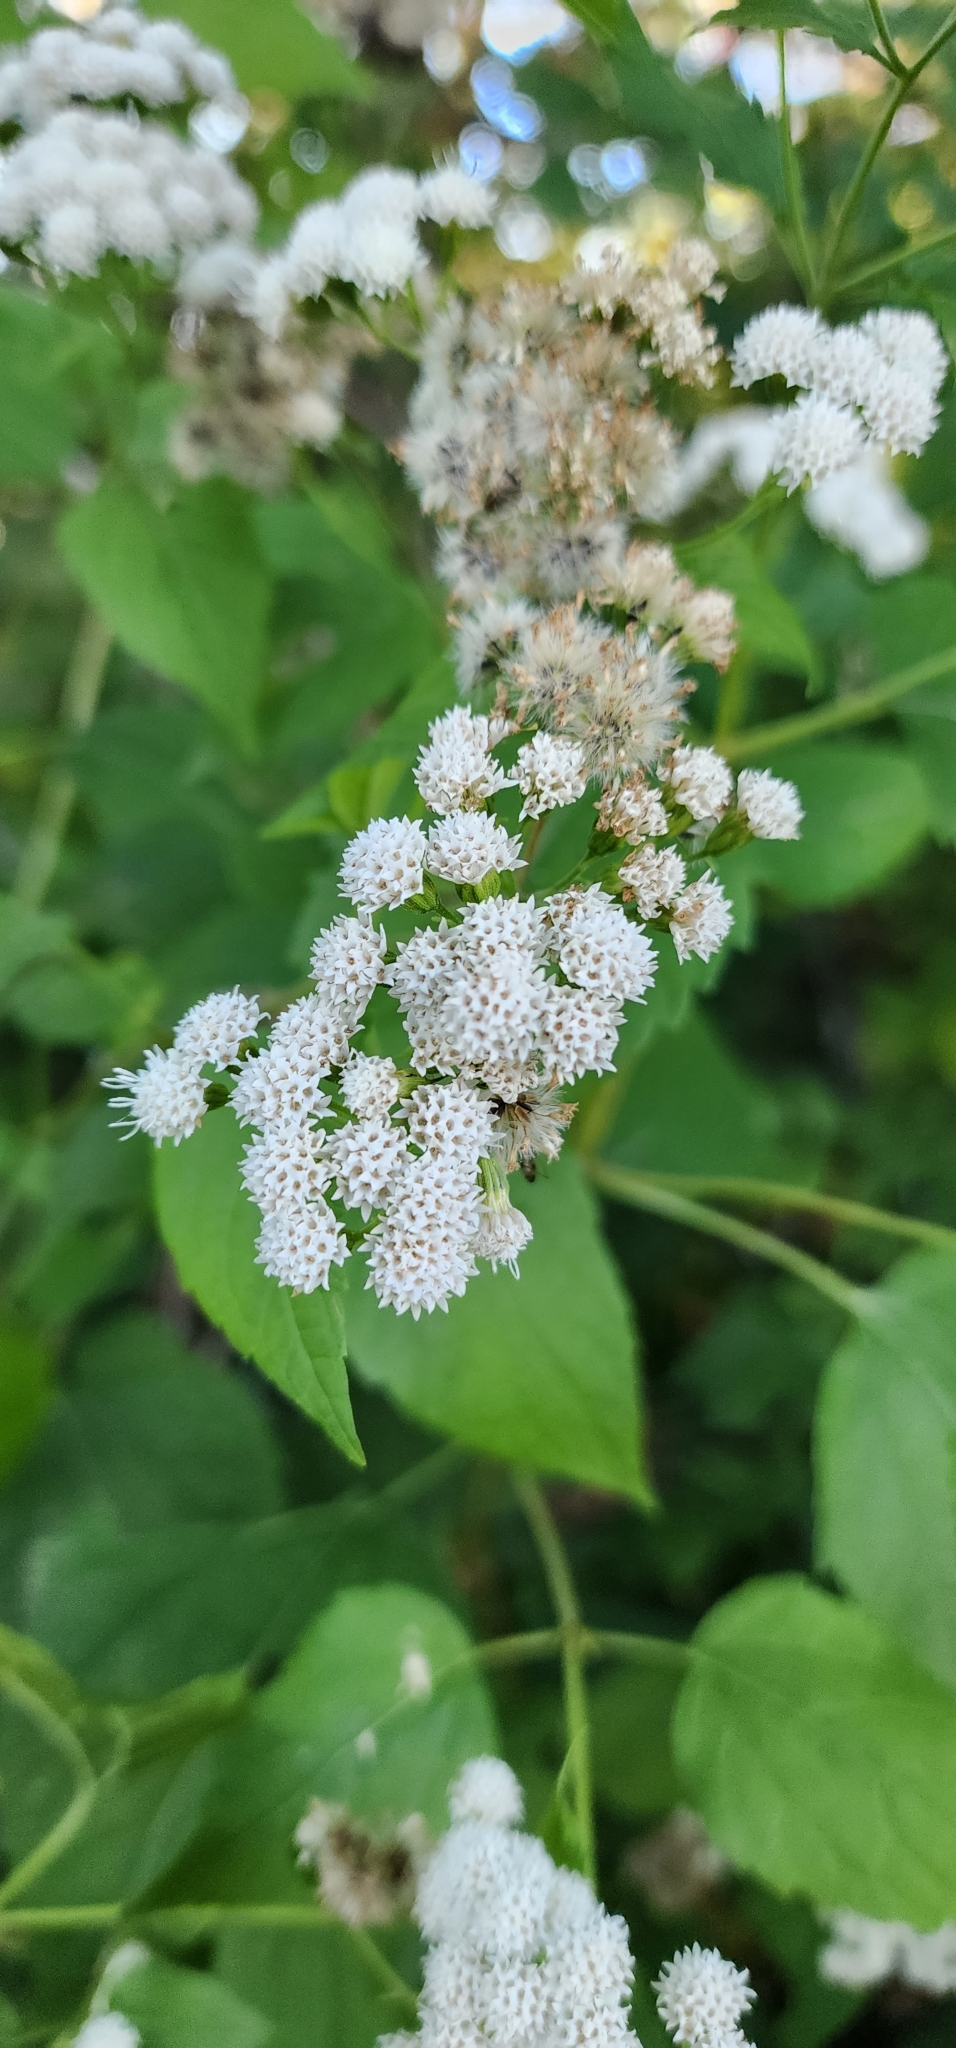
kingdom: Plantae
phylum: Tracheophyta
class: Magnoliopsida
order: Asterales
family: Asteraceae
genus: Ageratina
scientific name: Ageratina altissima
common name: White snakeroot
